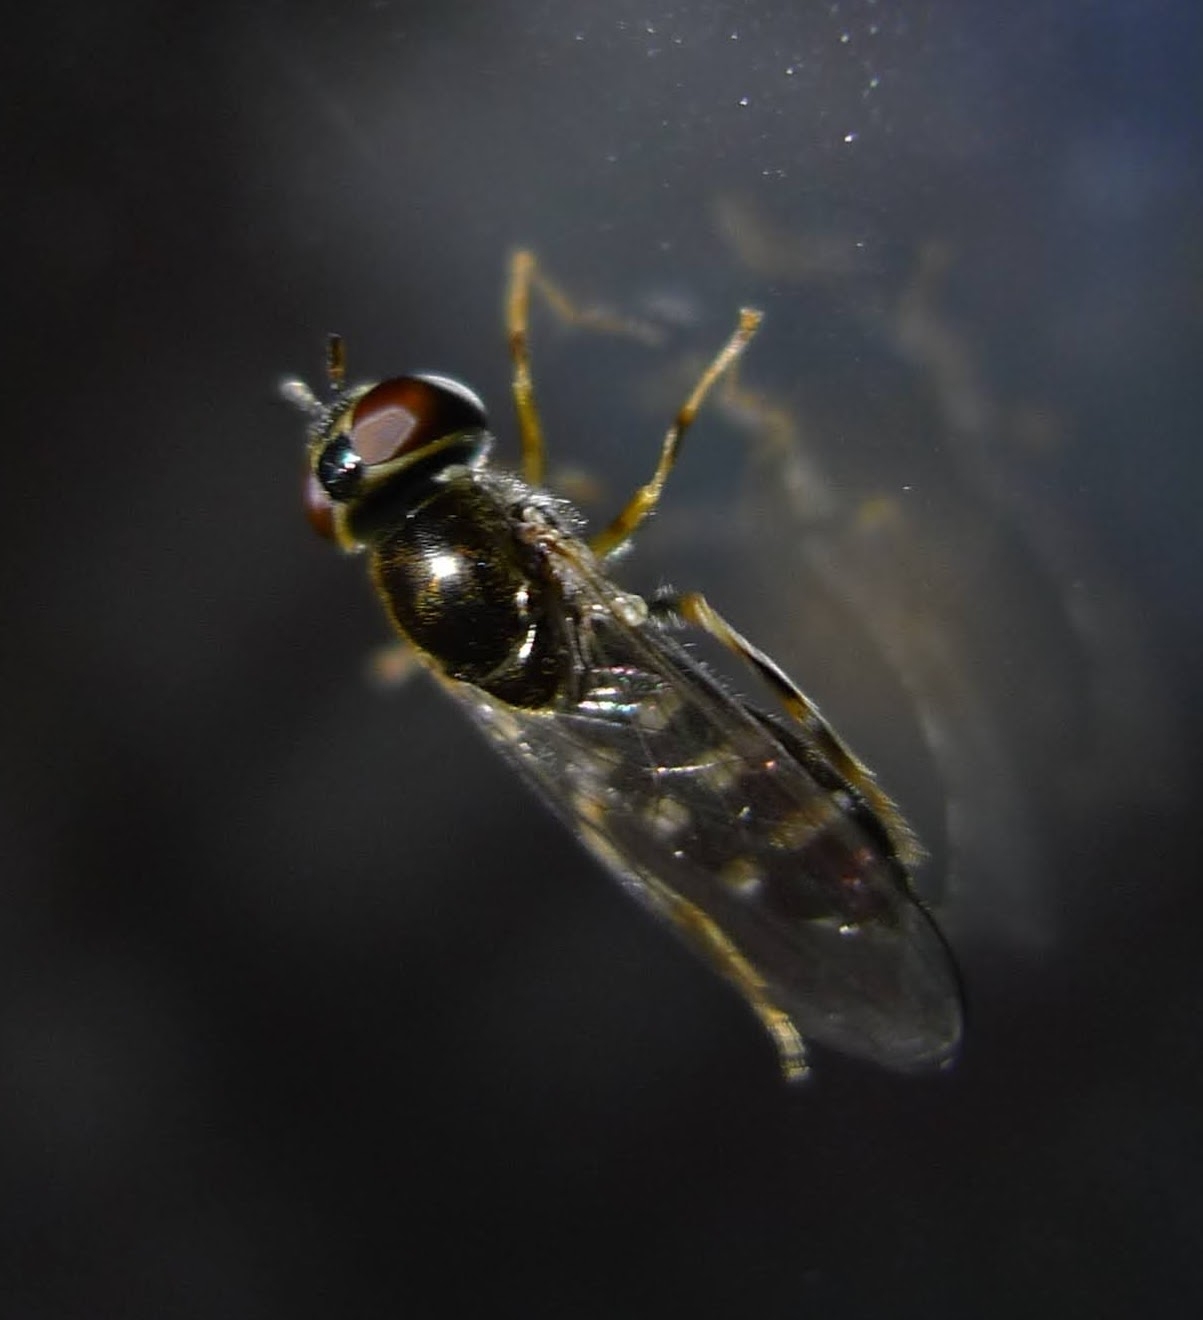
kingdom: Animalia
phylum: Arthropoda
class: Insecta
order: Diptera
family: Syrphidae
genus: Platycheirus
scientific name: Platycheirus
